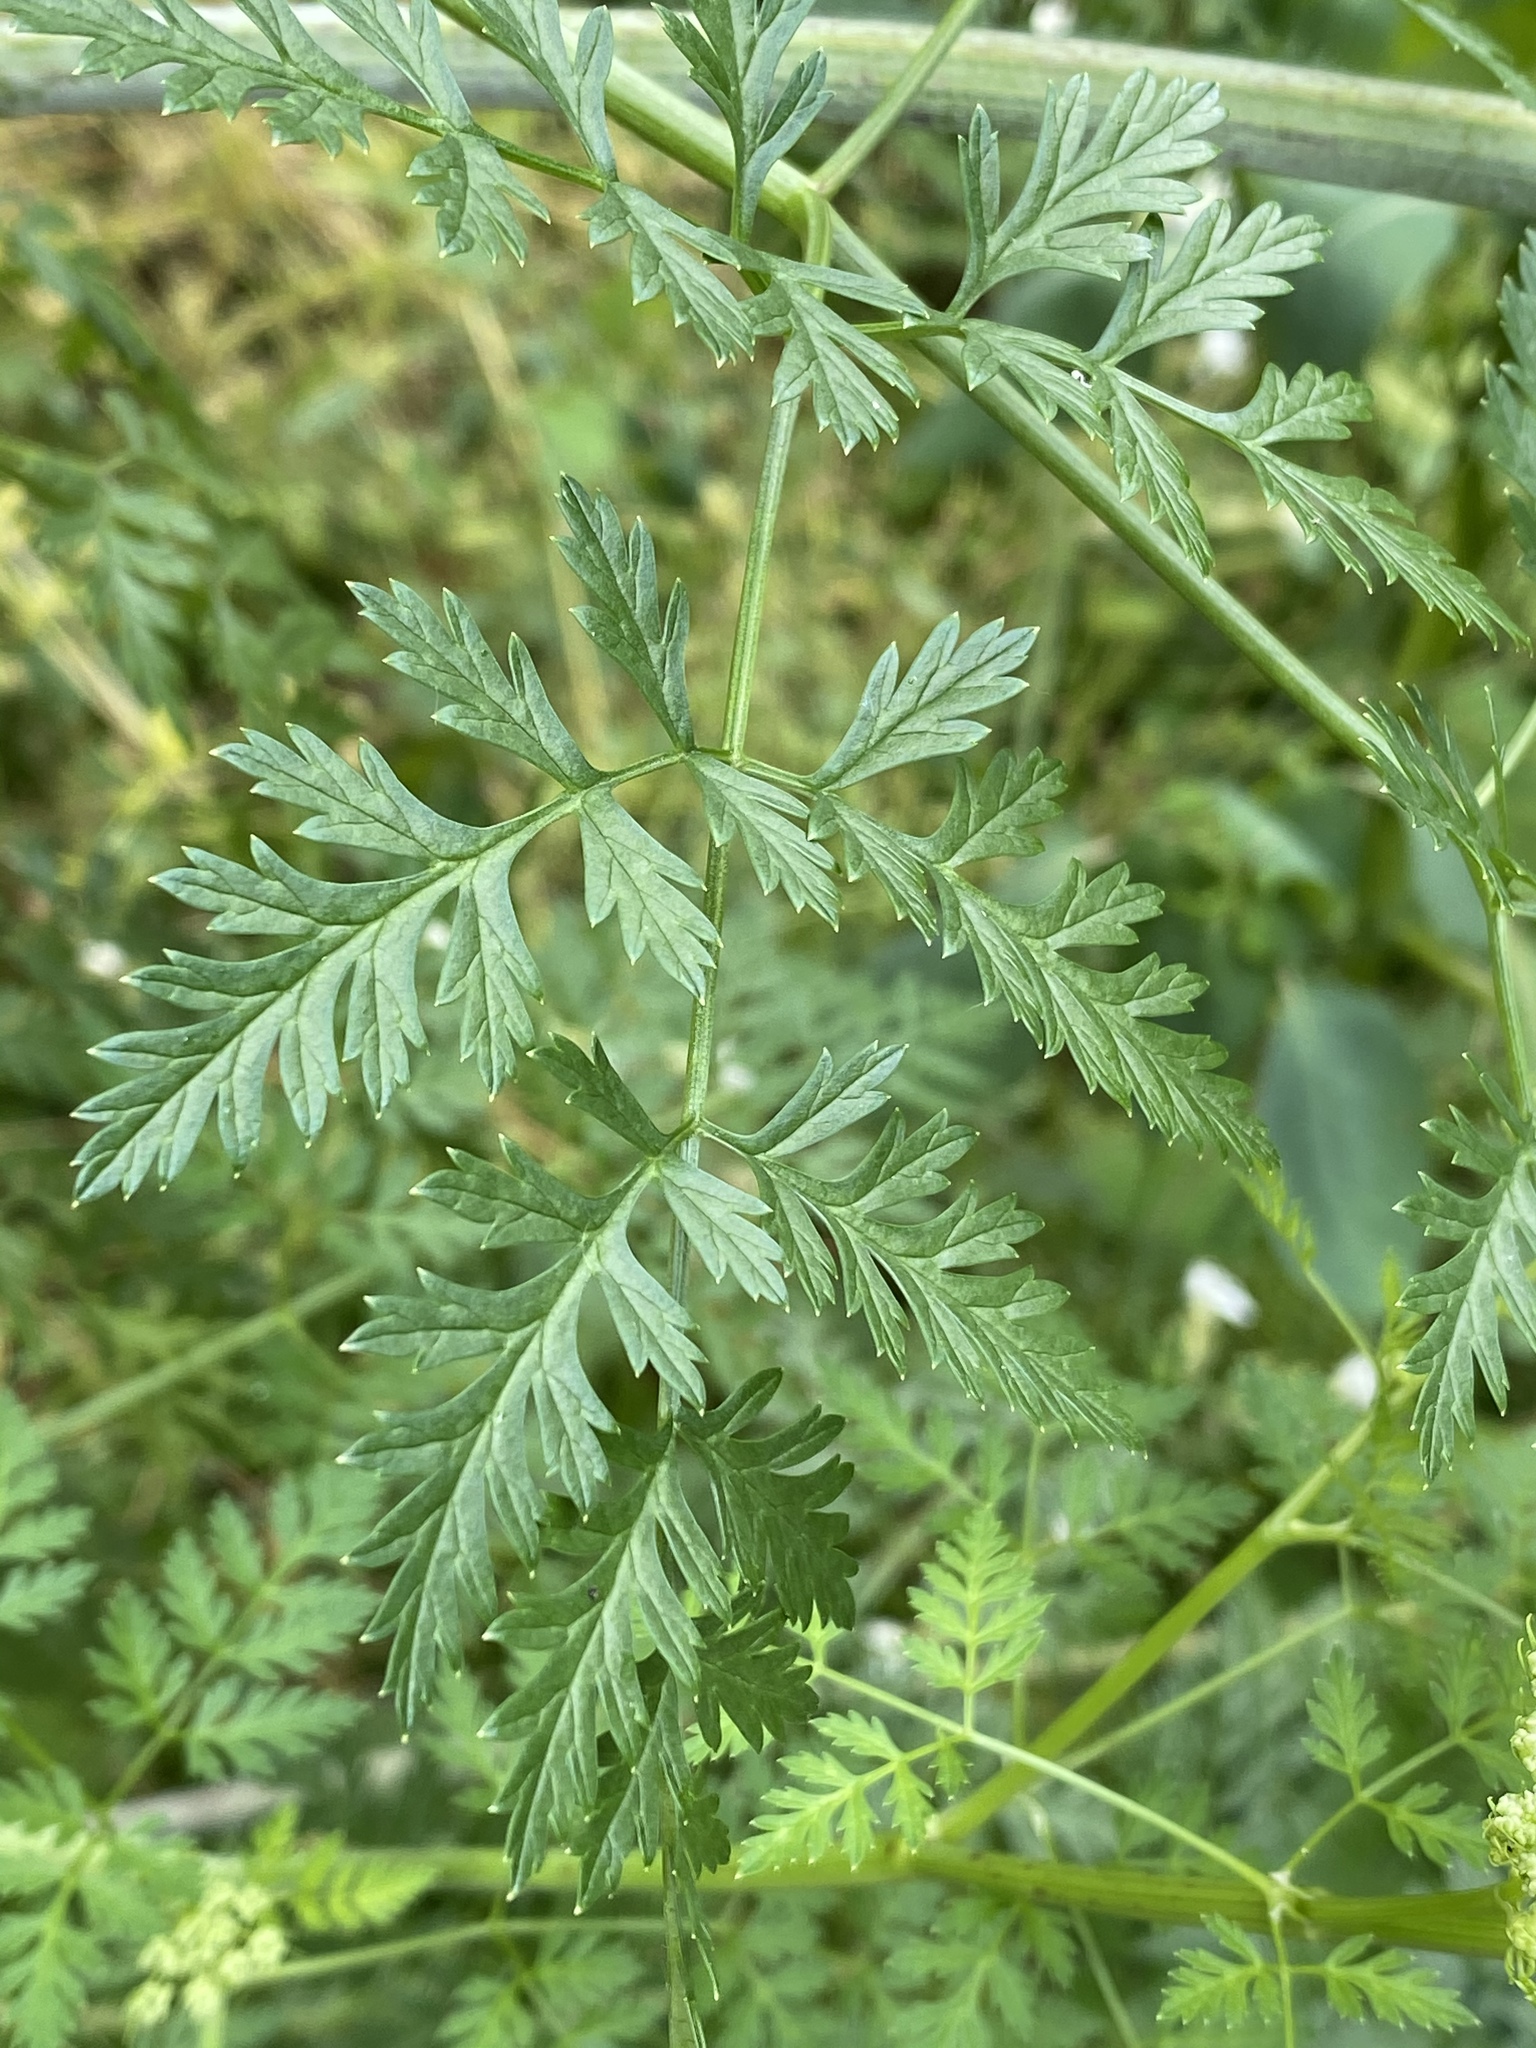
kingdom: Plantae
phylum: Tracheophyta
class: Magnoliopsida
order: Apiales
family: Apiaceae
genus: Conium
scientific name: Conium maculatum
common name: Hemlock
